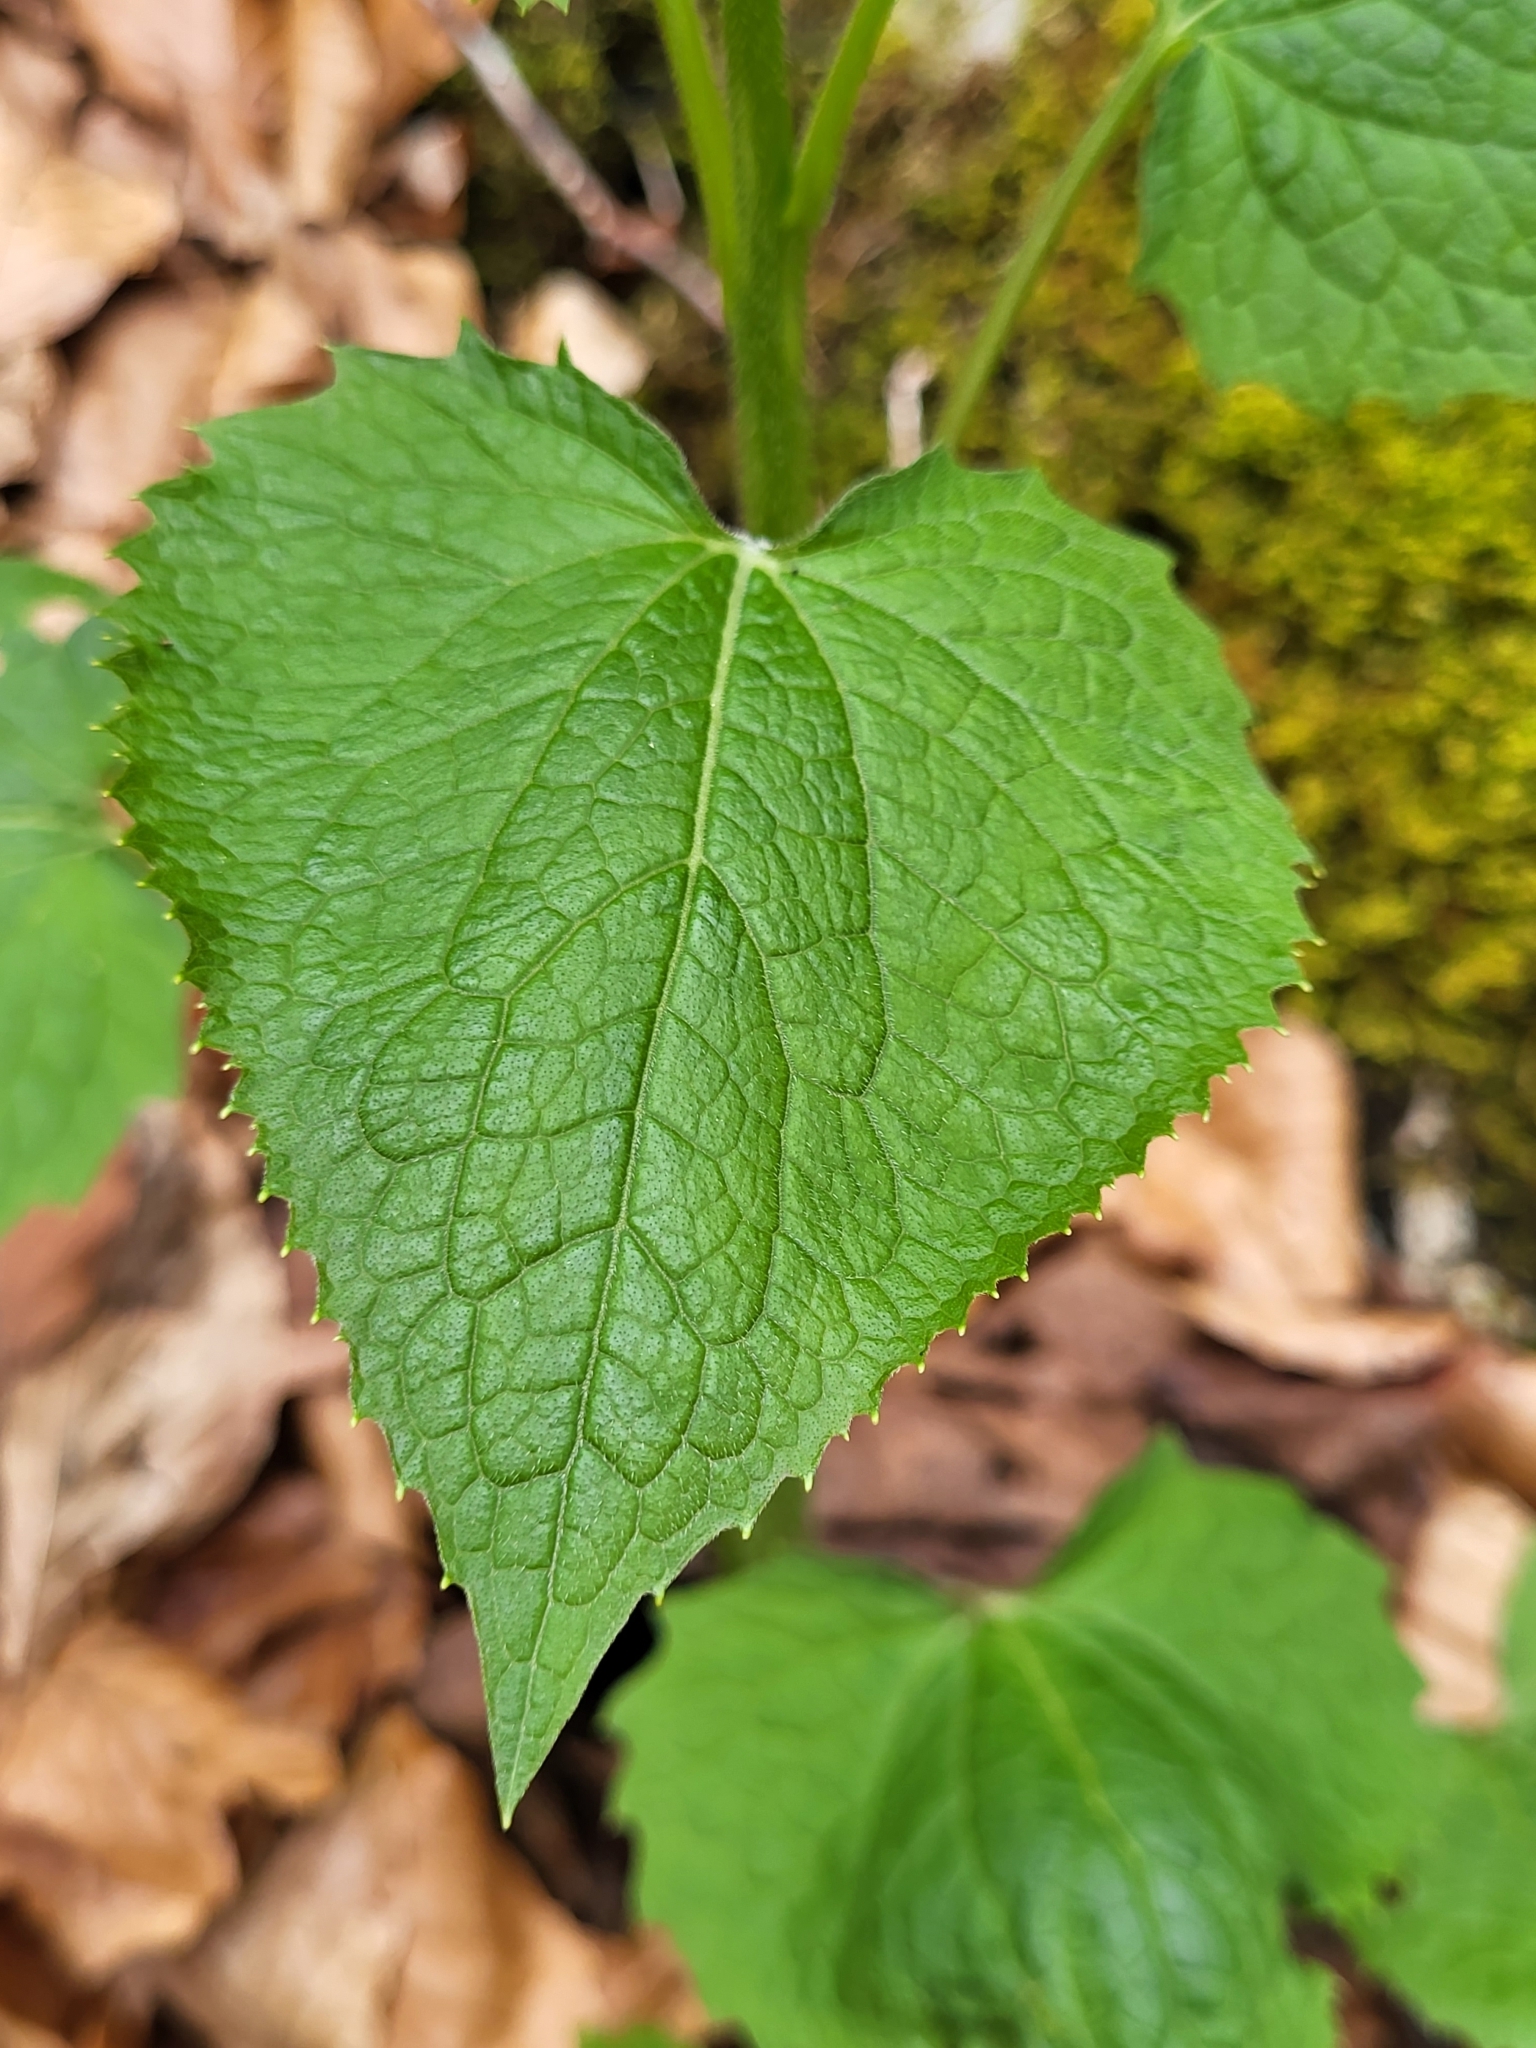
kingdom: Plantae
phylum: Tracheophyta
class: Magnoliopsida
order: Brassicales
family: Brassicaceae
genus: Lunaria
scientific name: Lunaria rediviva
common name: Perennial honesty
